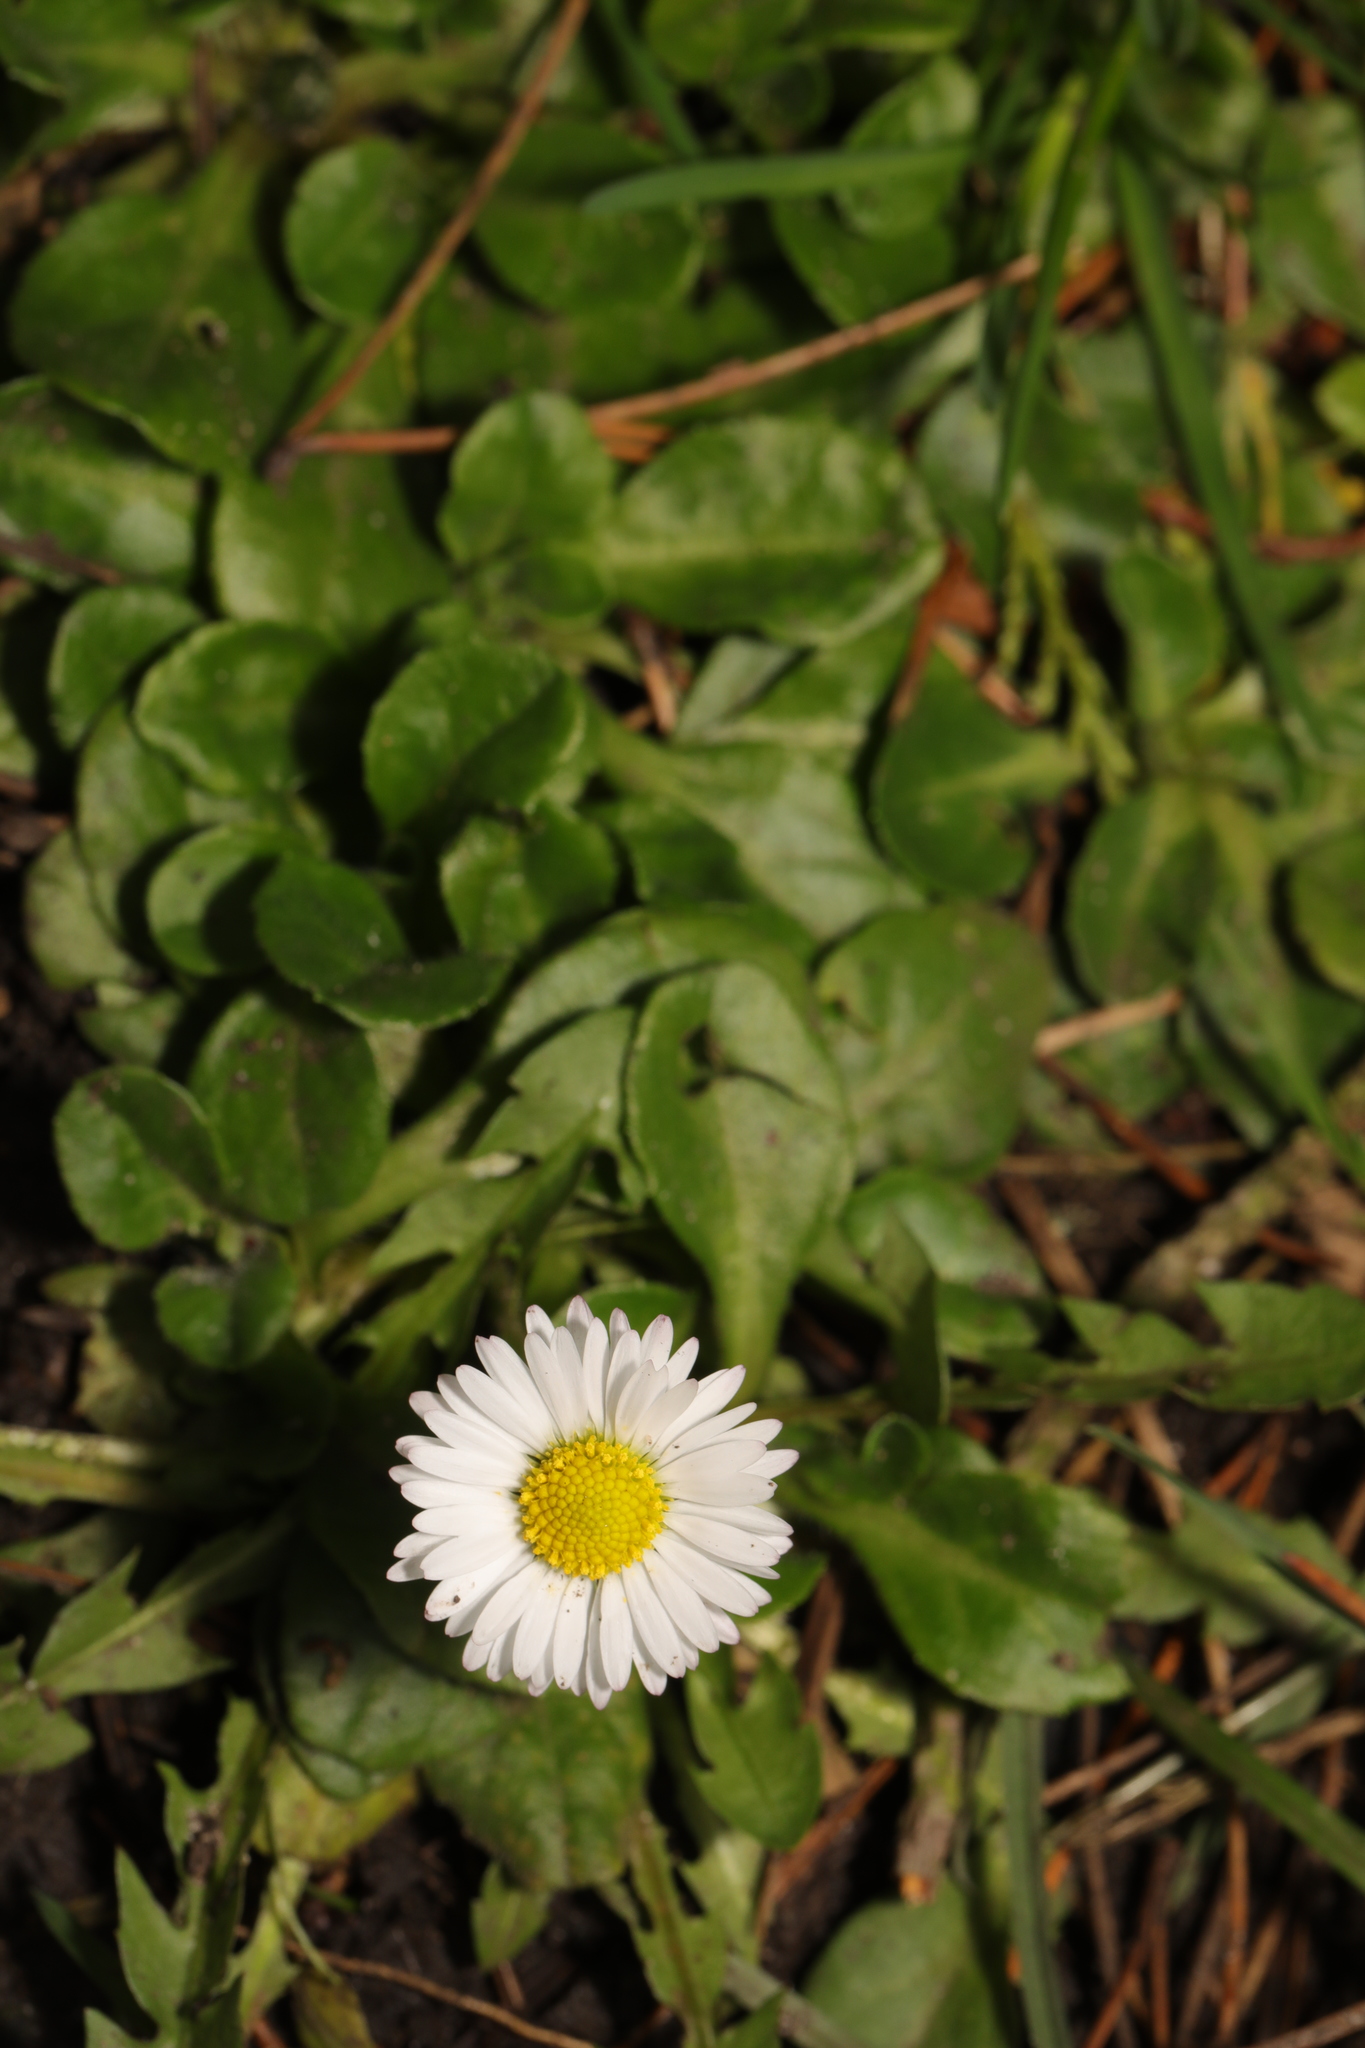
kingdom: Plantae
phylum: Tracheophyta
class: Magnoliopsida
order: Asterales
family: Asteraceae
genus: Bellis
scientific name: Bellis perennis
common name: Lawndaisy
